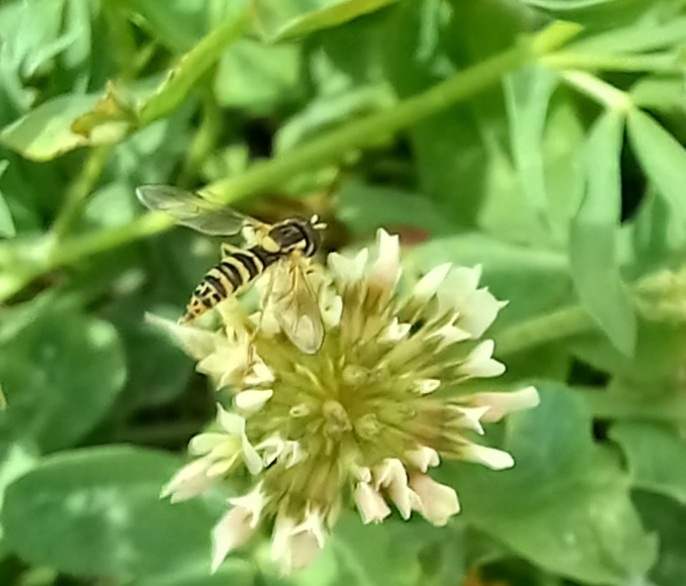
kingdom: Animalia
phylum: Arthropoda
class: Insecta
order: Diptera
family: Syrphidae
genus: Sphaerophoria
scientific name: Sphaerophoria
